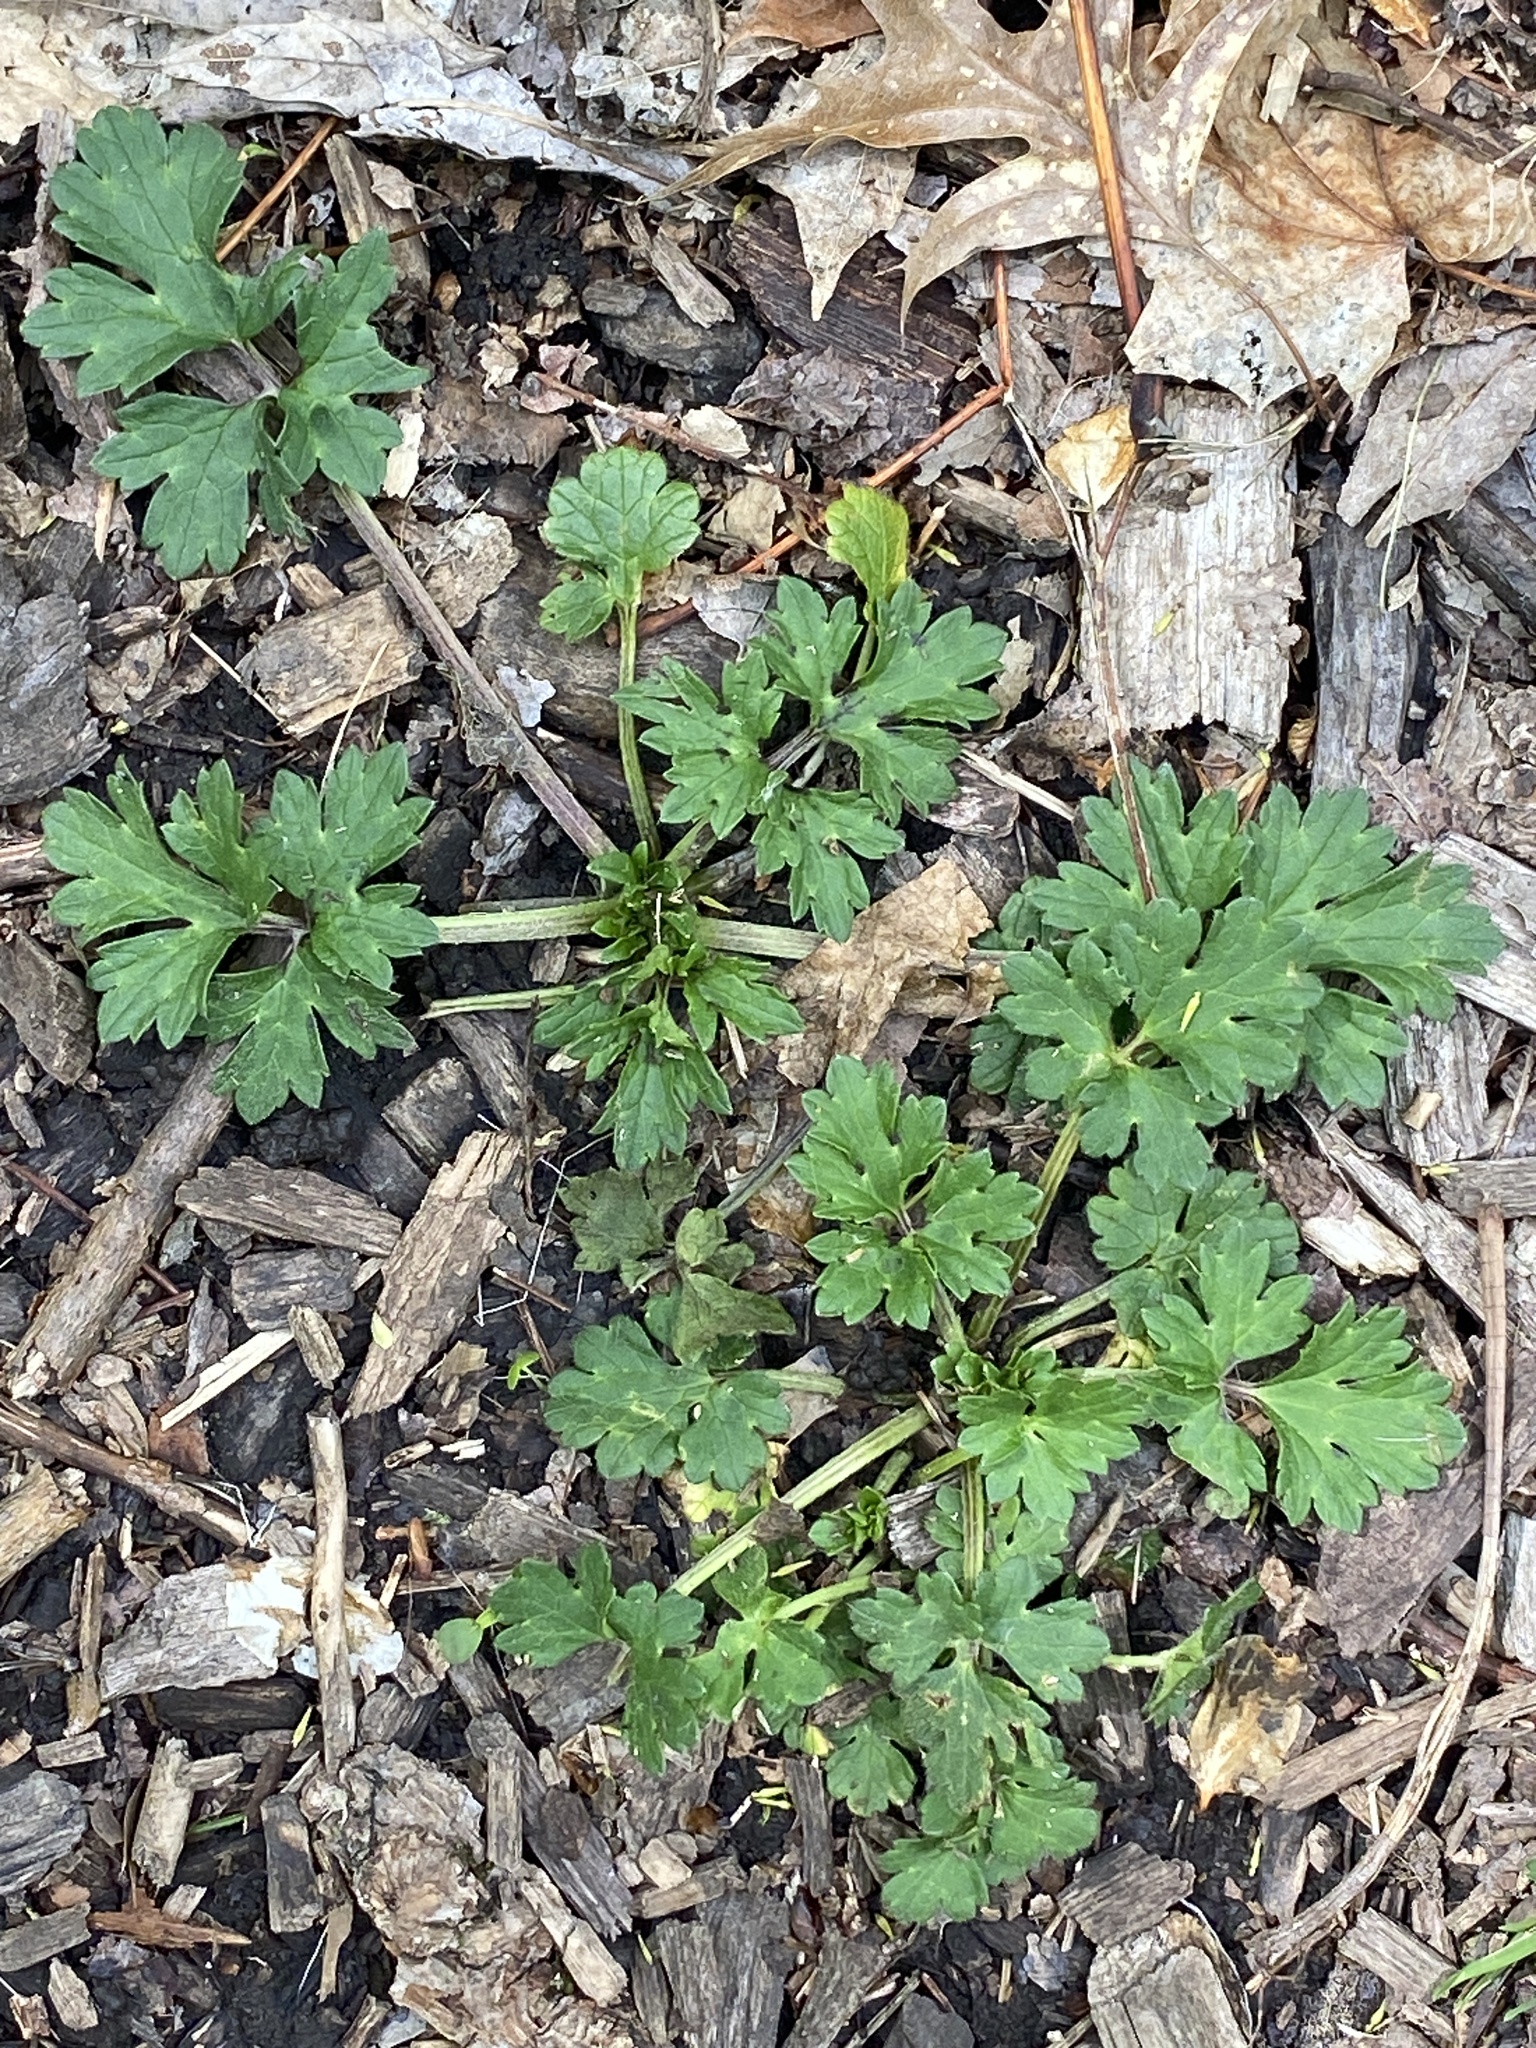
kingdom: Plantae
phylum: Tracheophyta
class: Magnoliopsida
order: Ranunculales
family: Ranunculaceae
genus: Ranunculus
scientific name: Ranunculus repens
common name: Creeping buttercup
